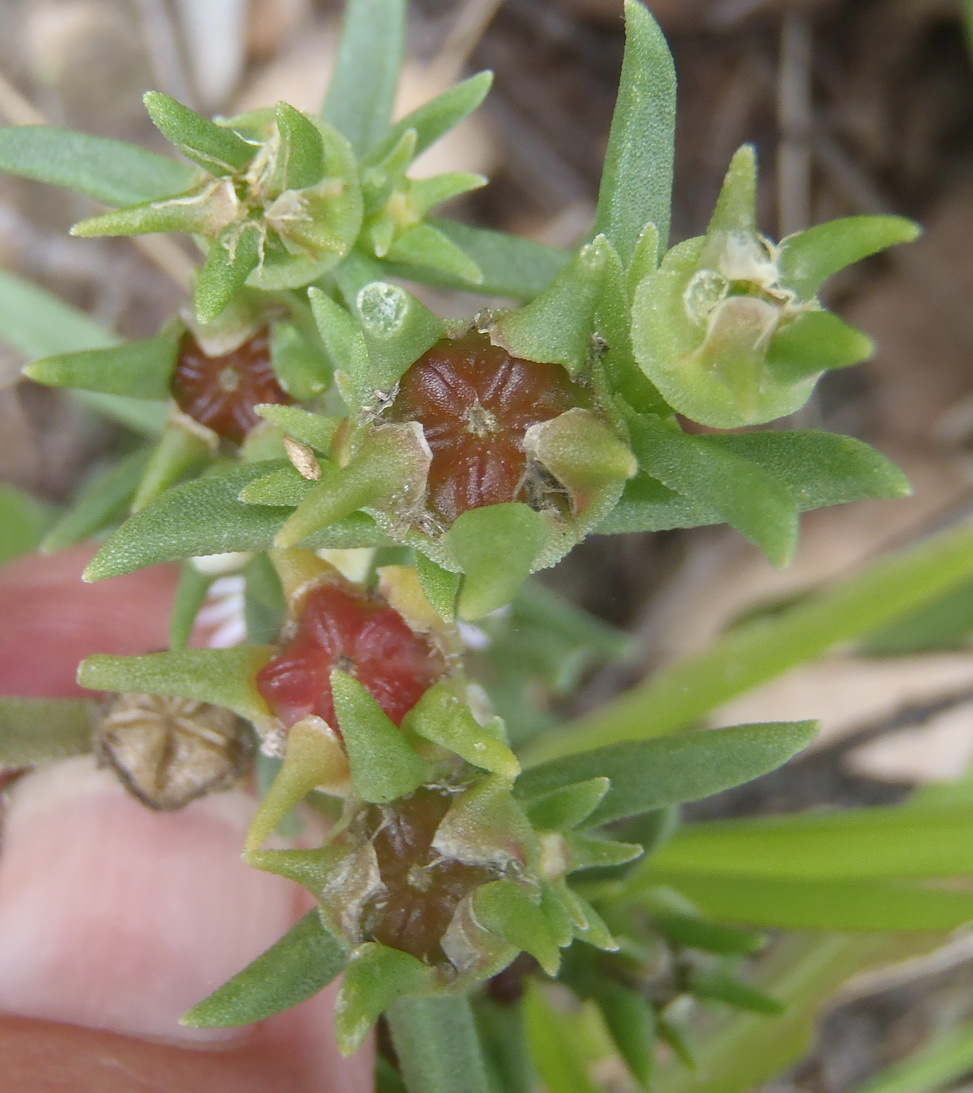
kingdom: Plantae
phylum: Tracheophyta
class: Magnoliopsida
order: Caryophyllales
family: Aizoaceae
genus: Delosperma
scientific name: Delosperma herbeum
